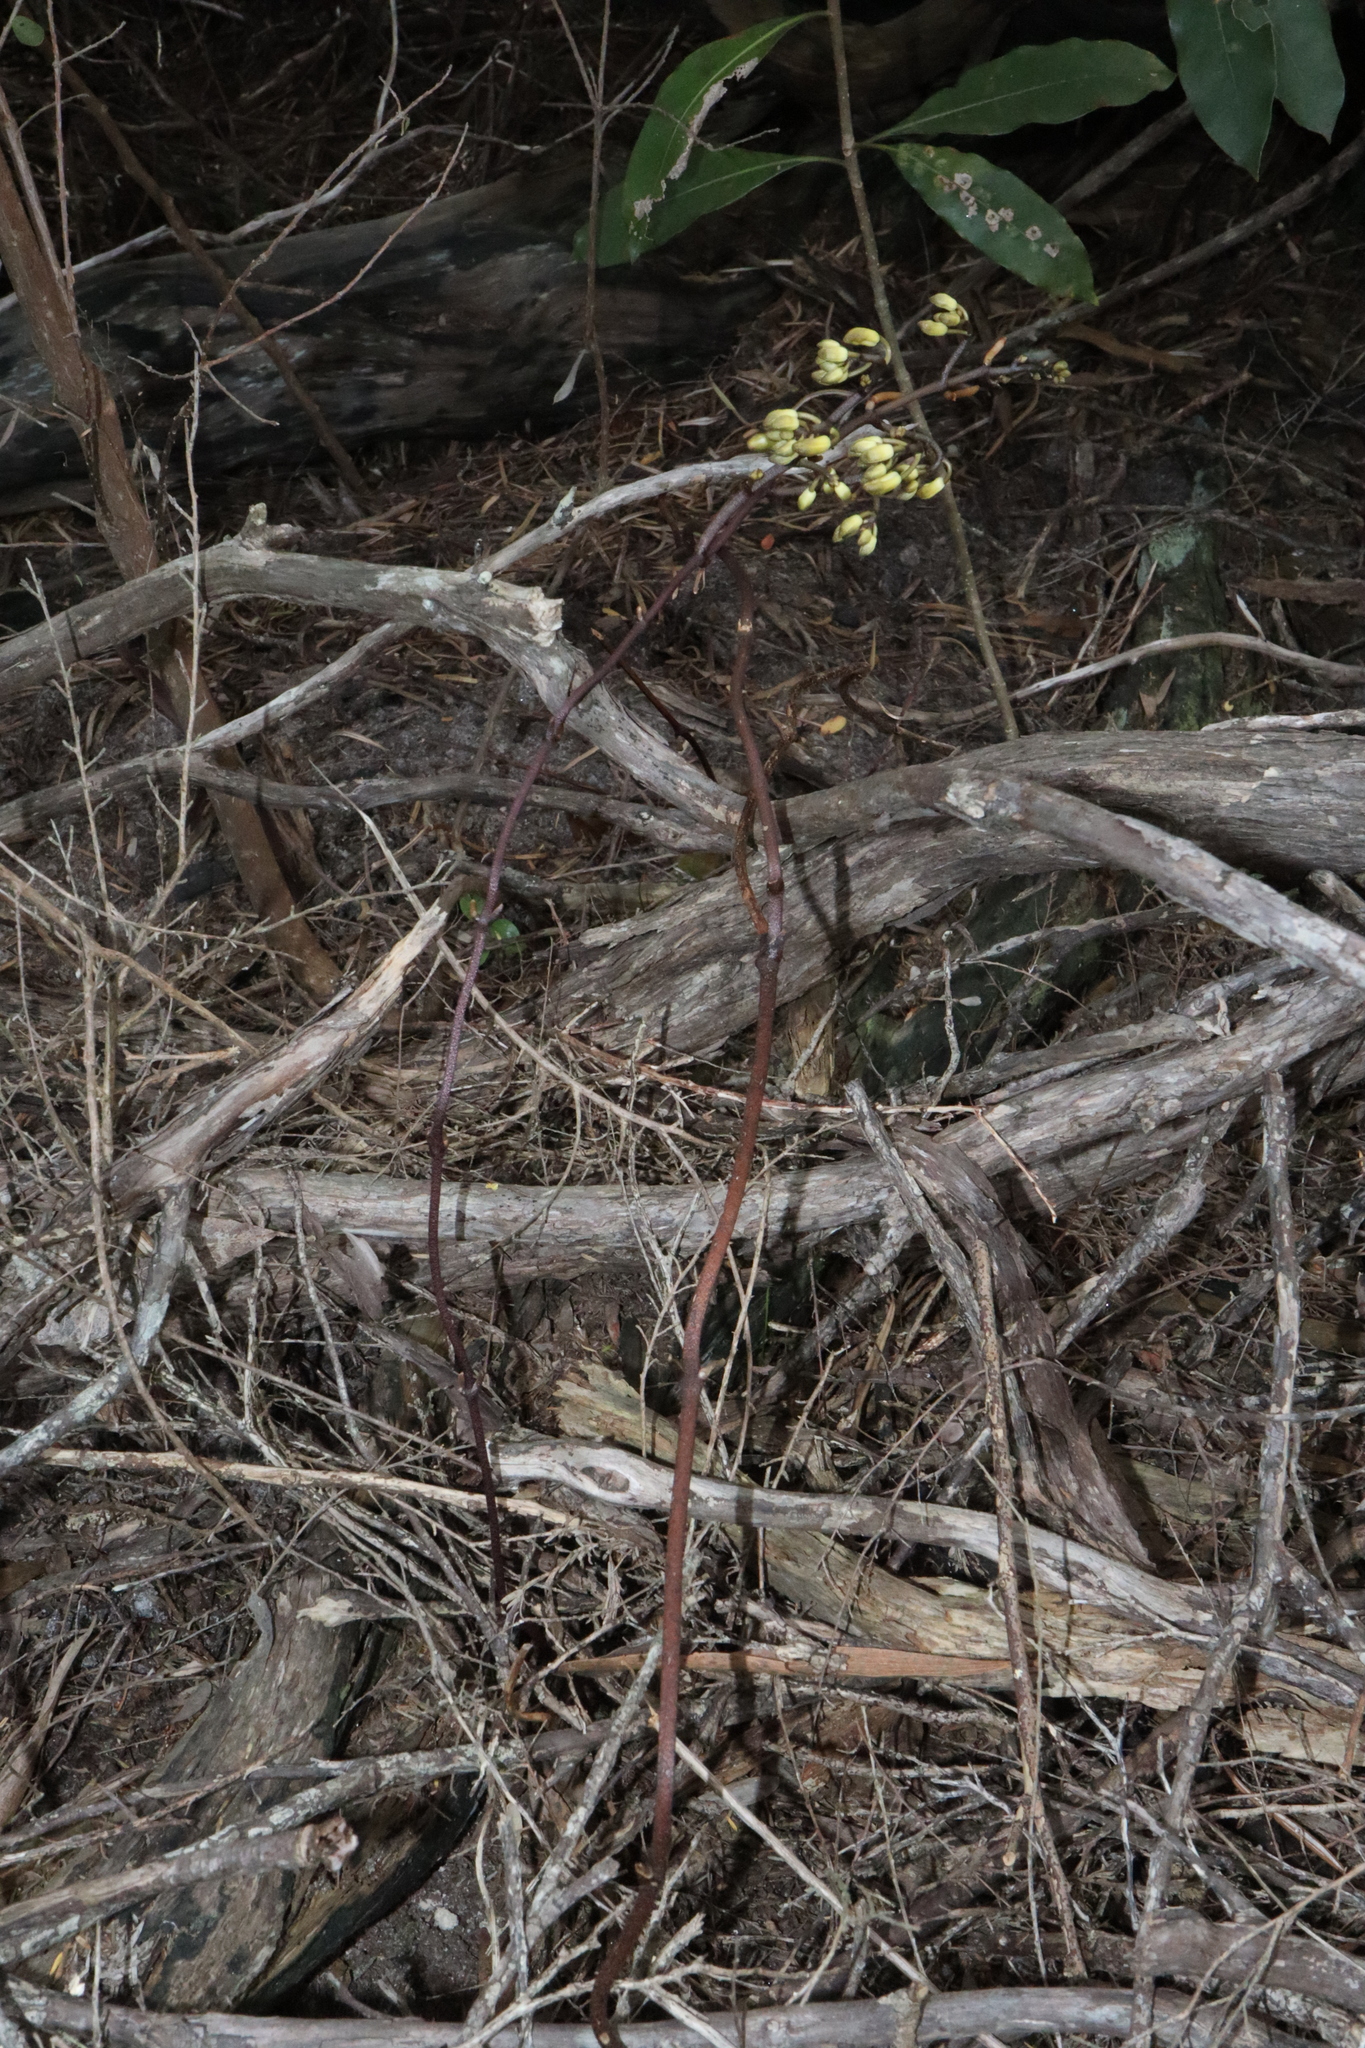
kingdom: Plantae
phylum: Tracheophyta
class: Liliopsida
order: Asparagales
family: Orchidaceae
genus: Erythrorchis
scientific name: Erythrorchis cassythoides
